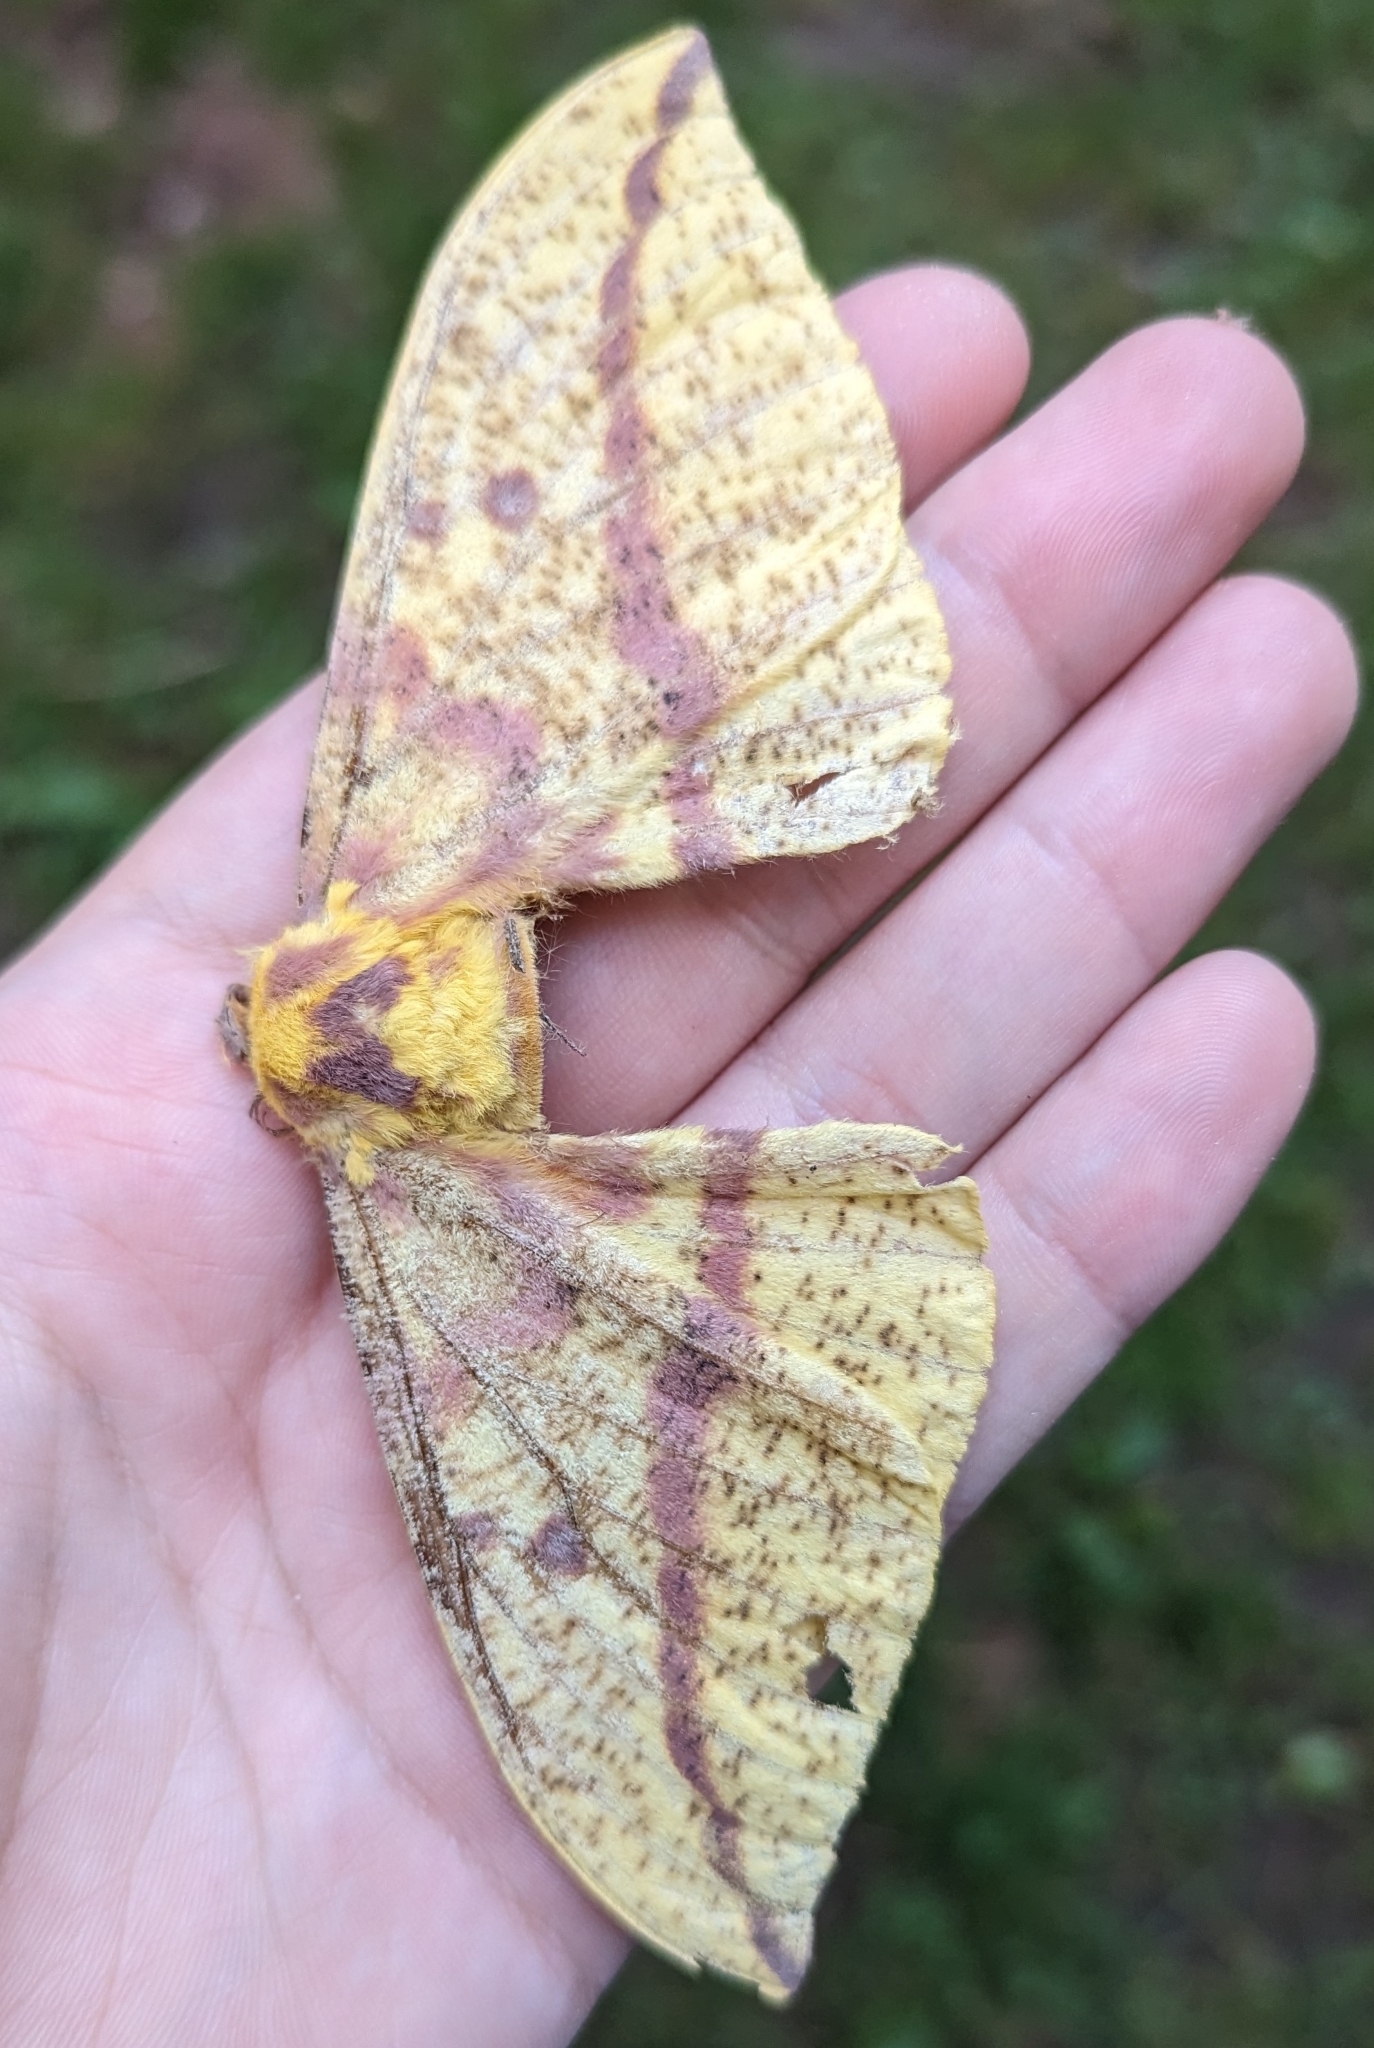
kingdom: Animalia
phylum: Arthropoda
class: Insecta
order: Lepidoptera
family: Saturniidae
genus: Eacles
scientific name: Eacles imperialis
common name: Imperial moth
